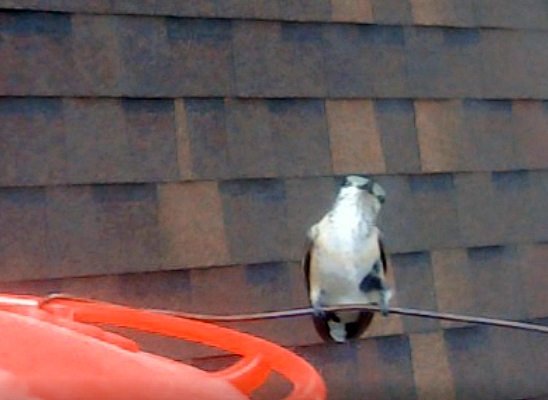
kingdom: Animalia
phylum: Chordata
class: Aves
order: Apodiformes
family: Trochilidae
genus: Selasphorus
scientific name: Selasphorus calliope
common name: Calliope hummingbird
